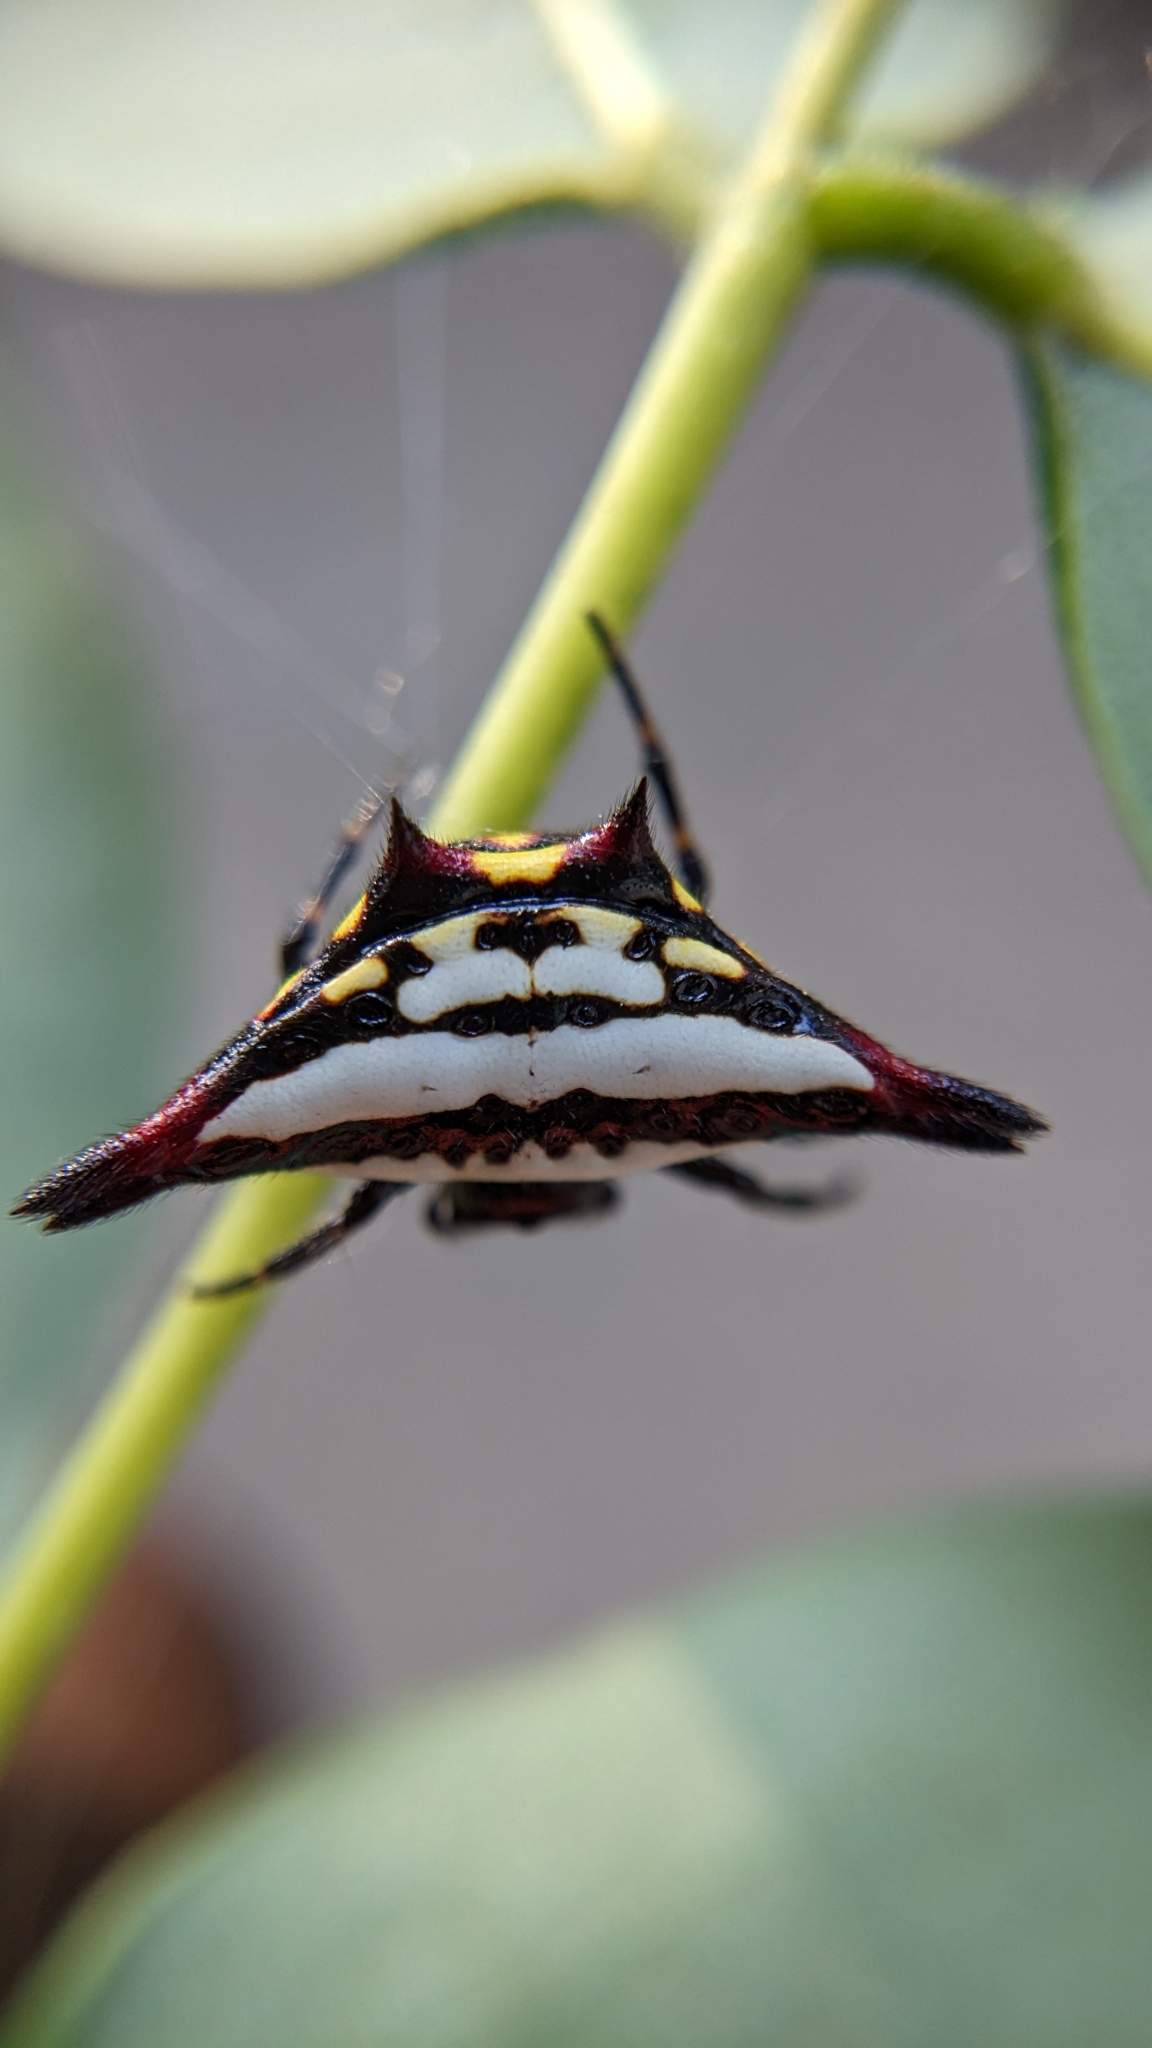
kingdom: Animalia
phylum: Arthropoda
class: Arachnida
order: Araneae
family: Araneidae
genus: Gasteracantha
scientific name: Gasteracantha geminata
